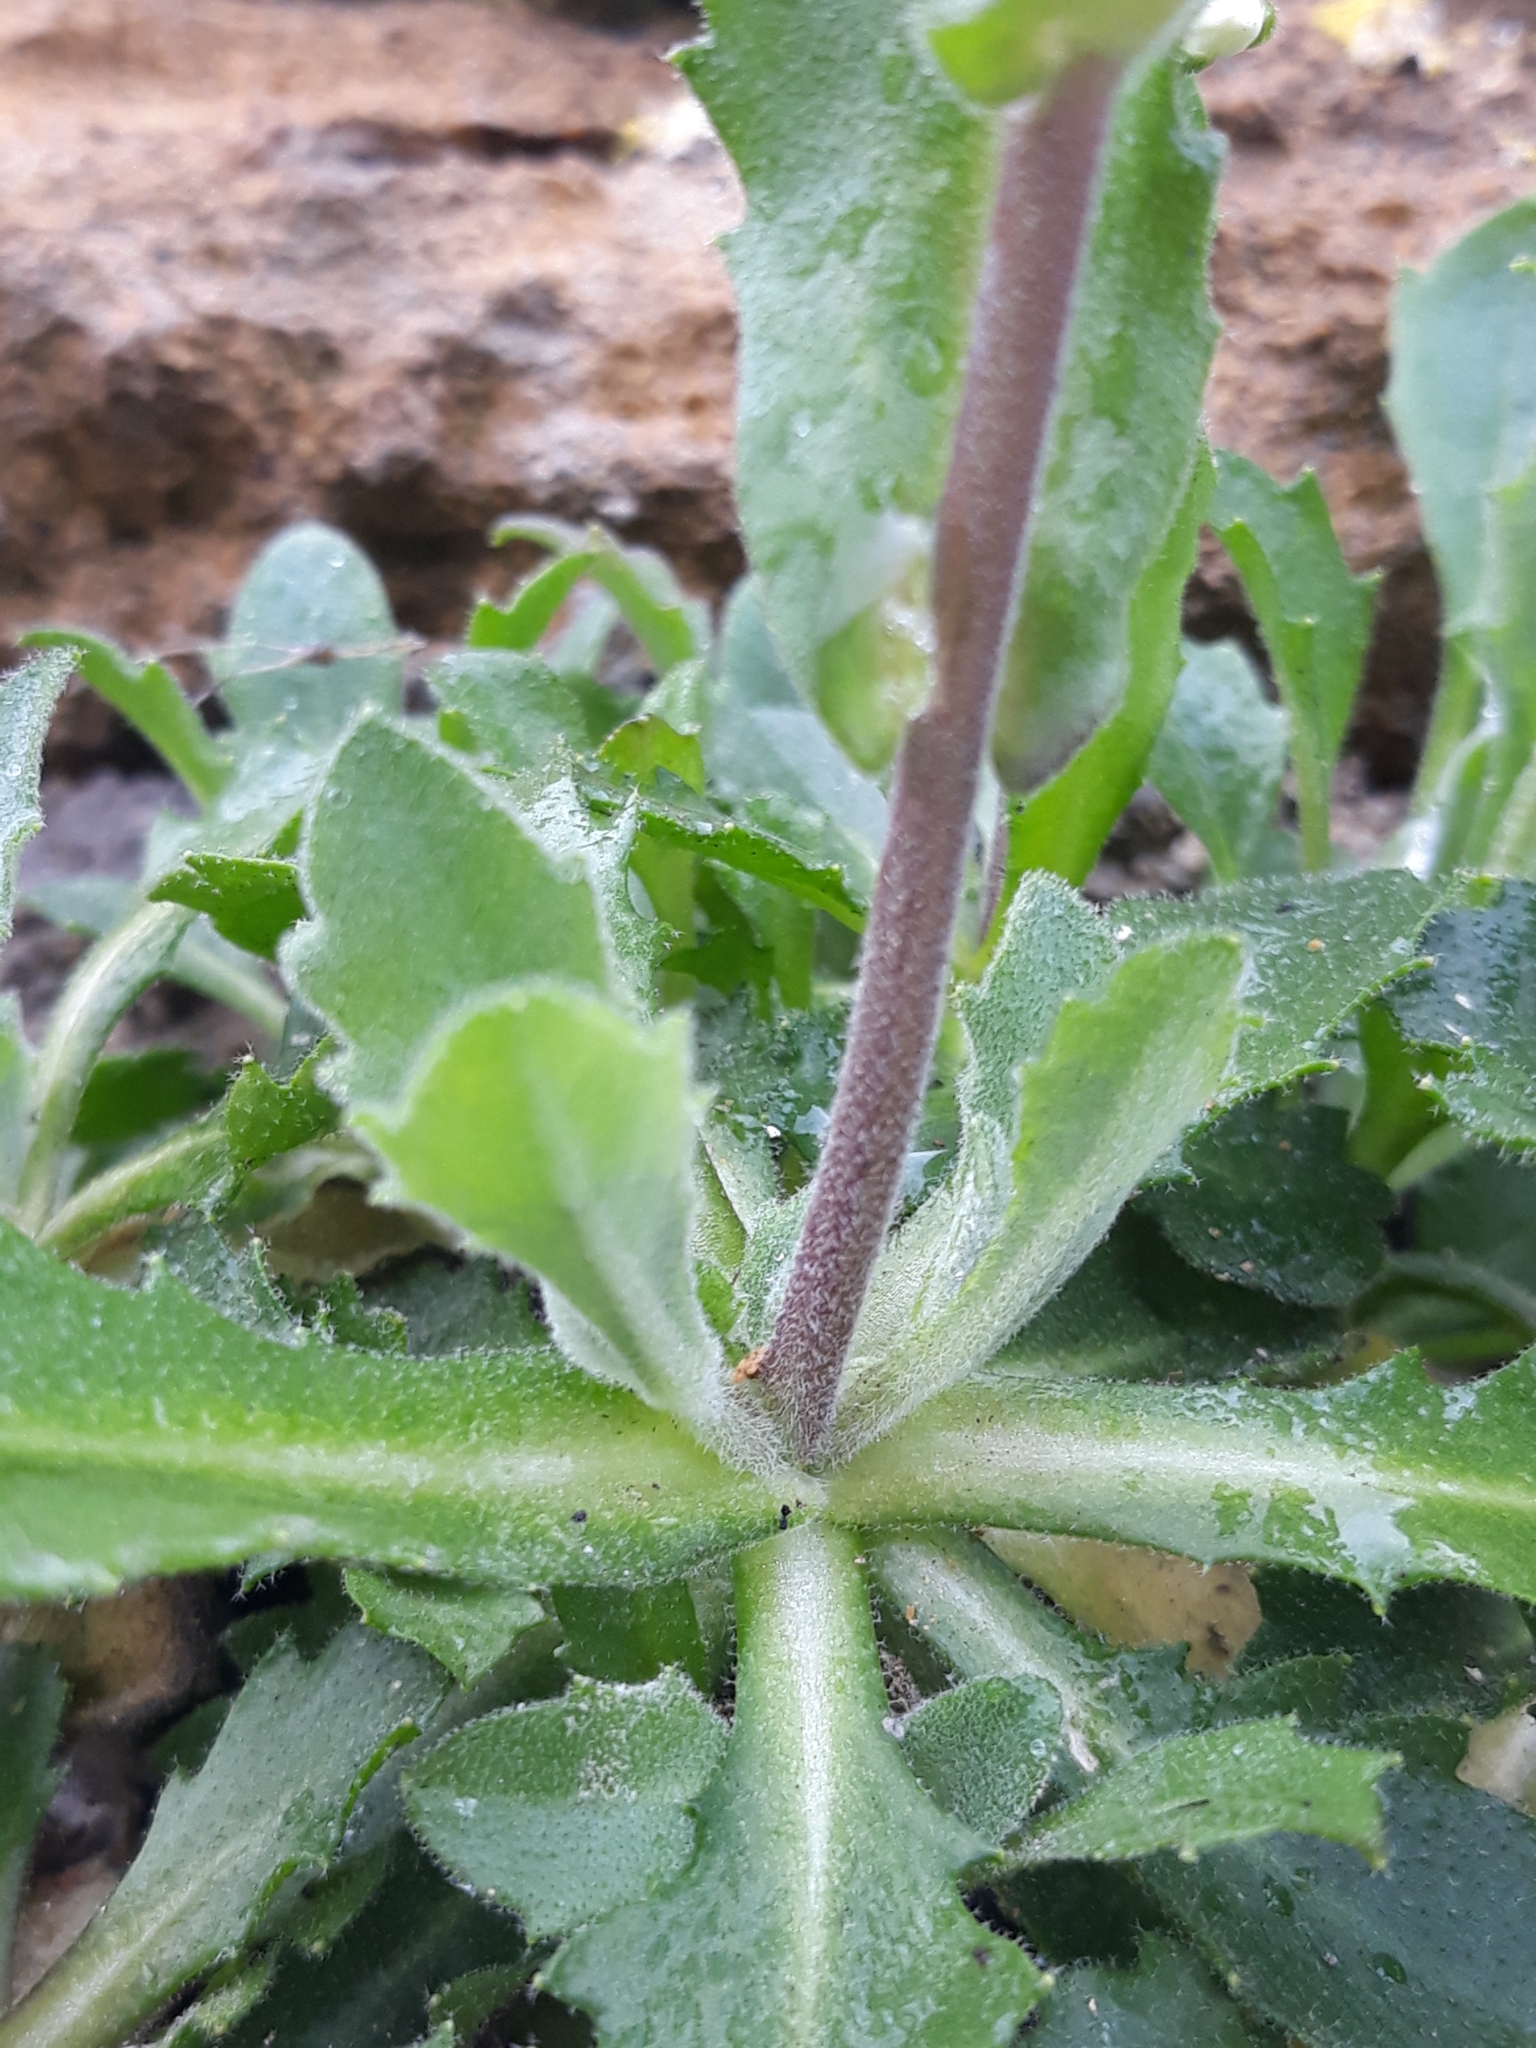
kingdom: Plantae
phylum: Tracheophyta
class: Magnoliopsida
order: Brassicales
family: Brassicaceae
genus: Arabis
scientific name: Arabis caucasica
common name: Gray rockcress
